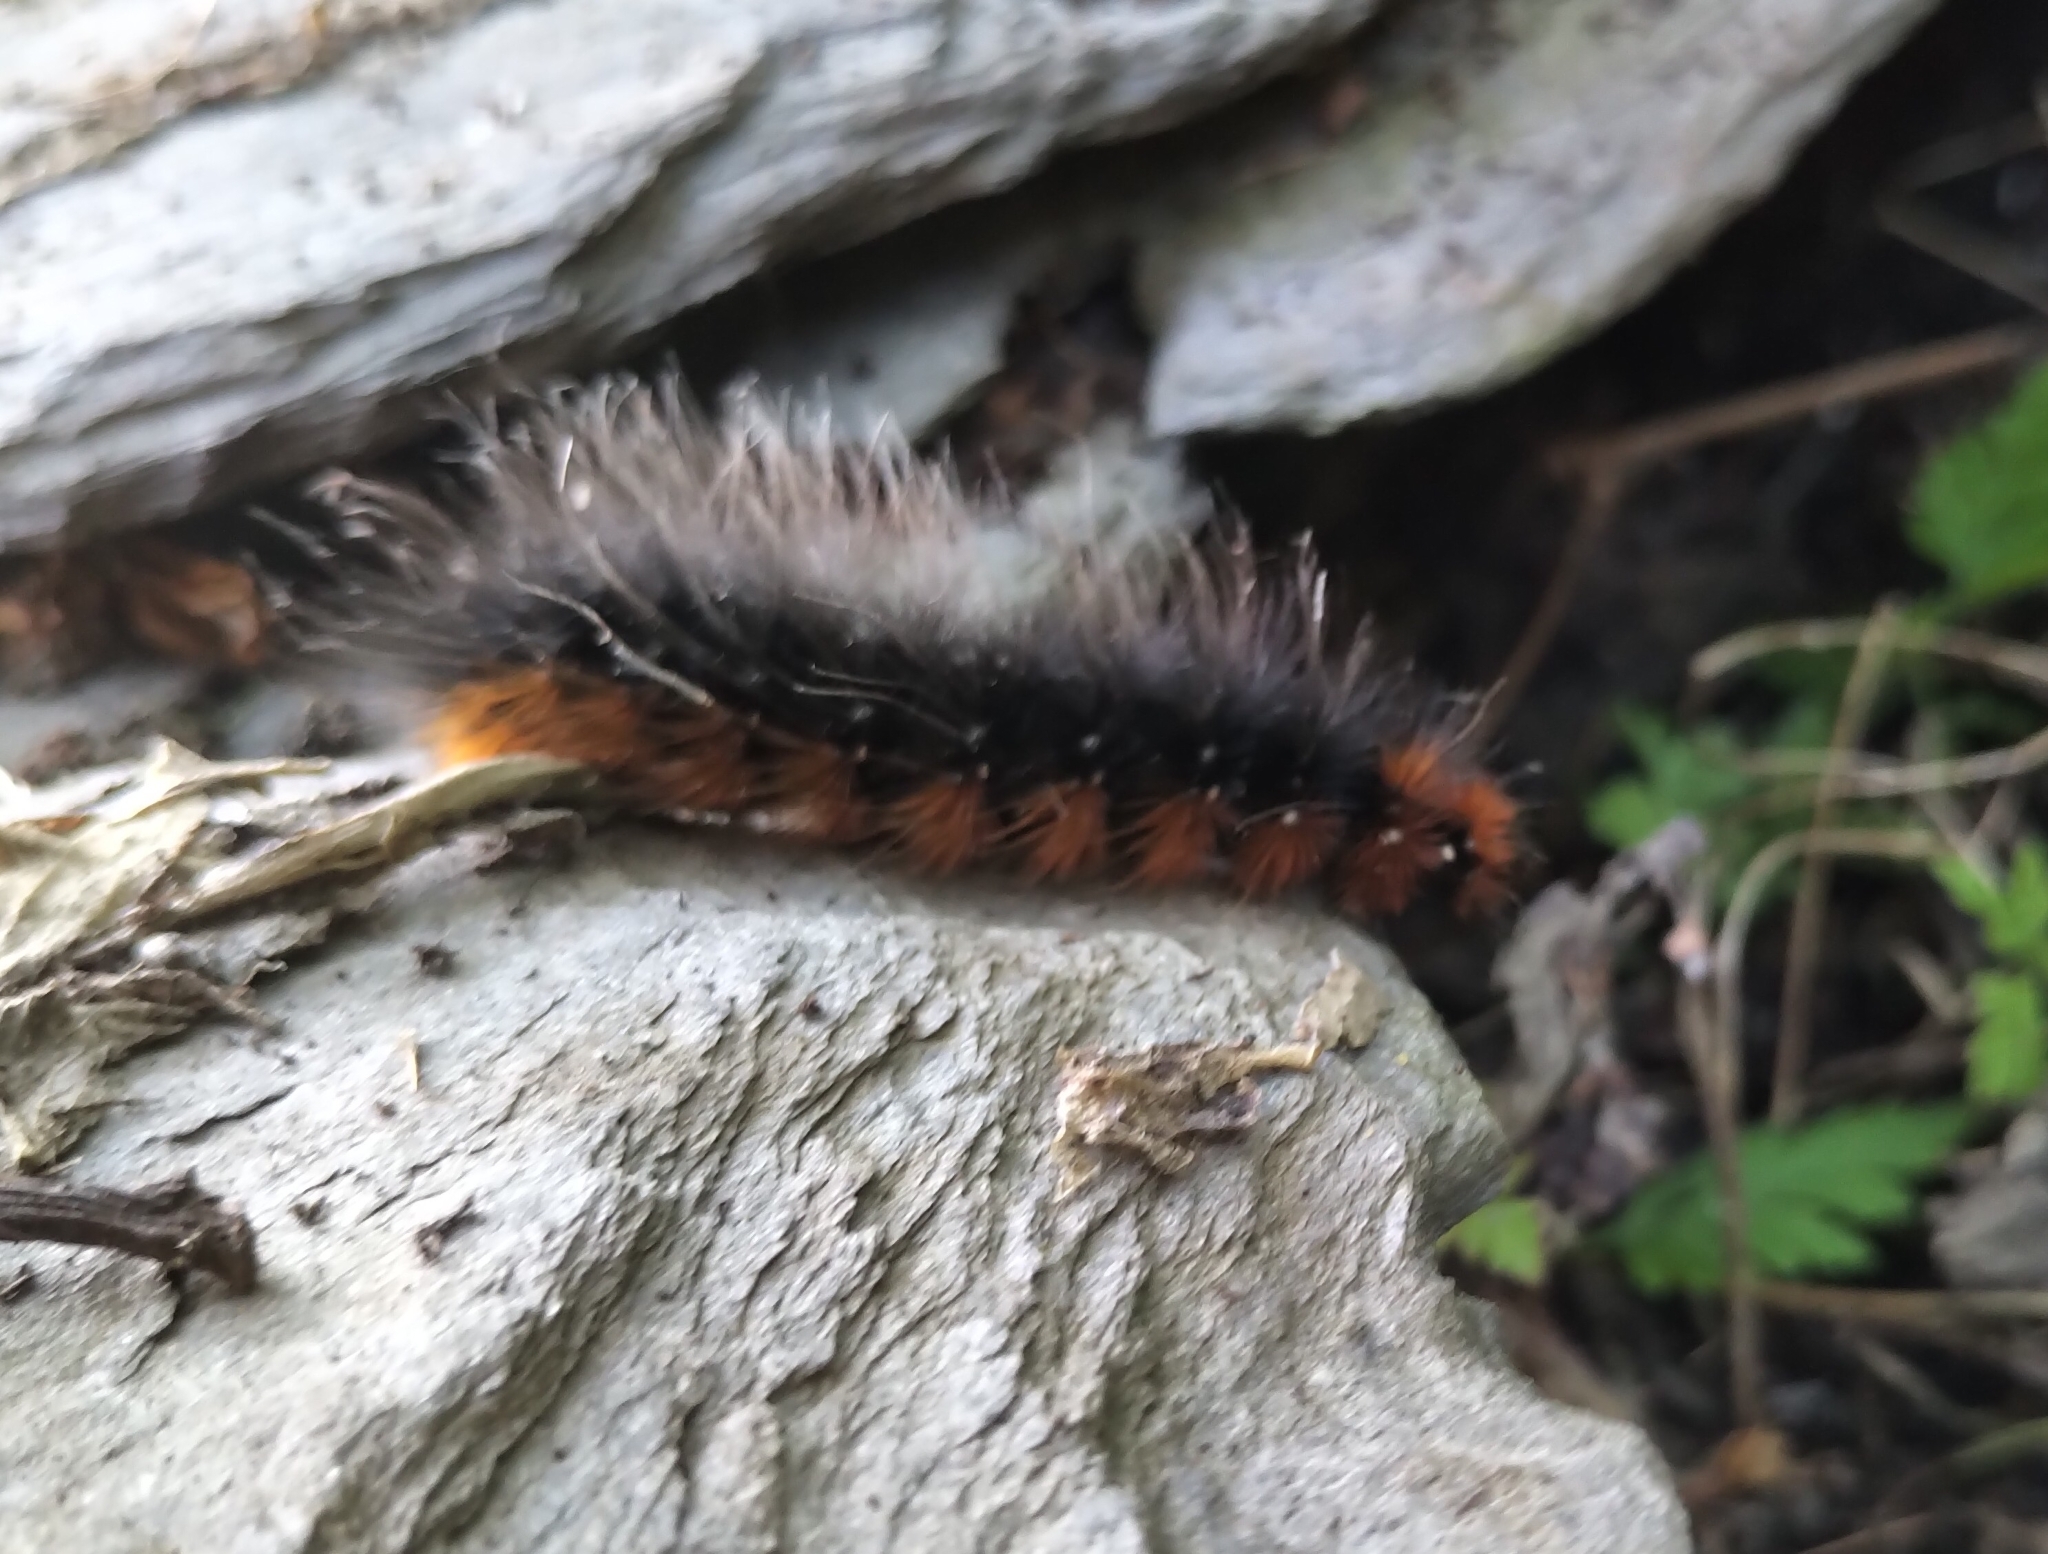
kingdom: Animalia
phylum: Arthropoda
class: Insecta
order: Lepidoptera
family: Erebidae
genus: Arctia
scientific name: Arctia caja
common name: Garden tiger
